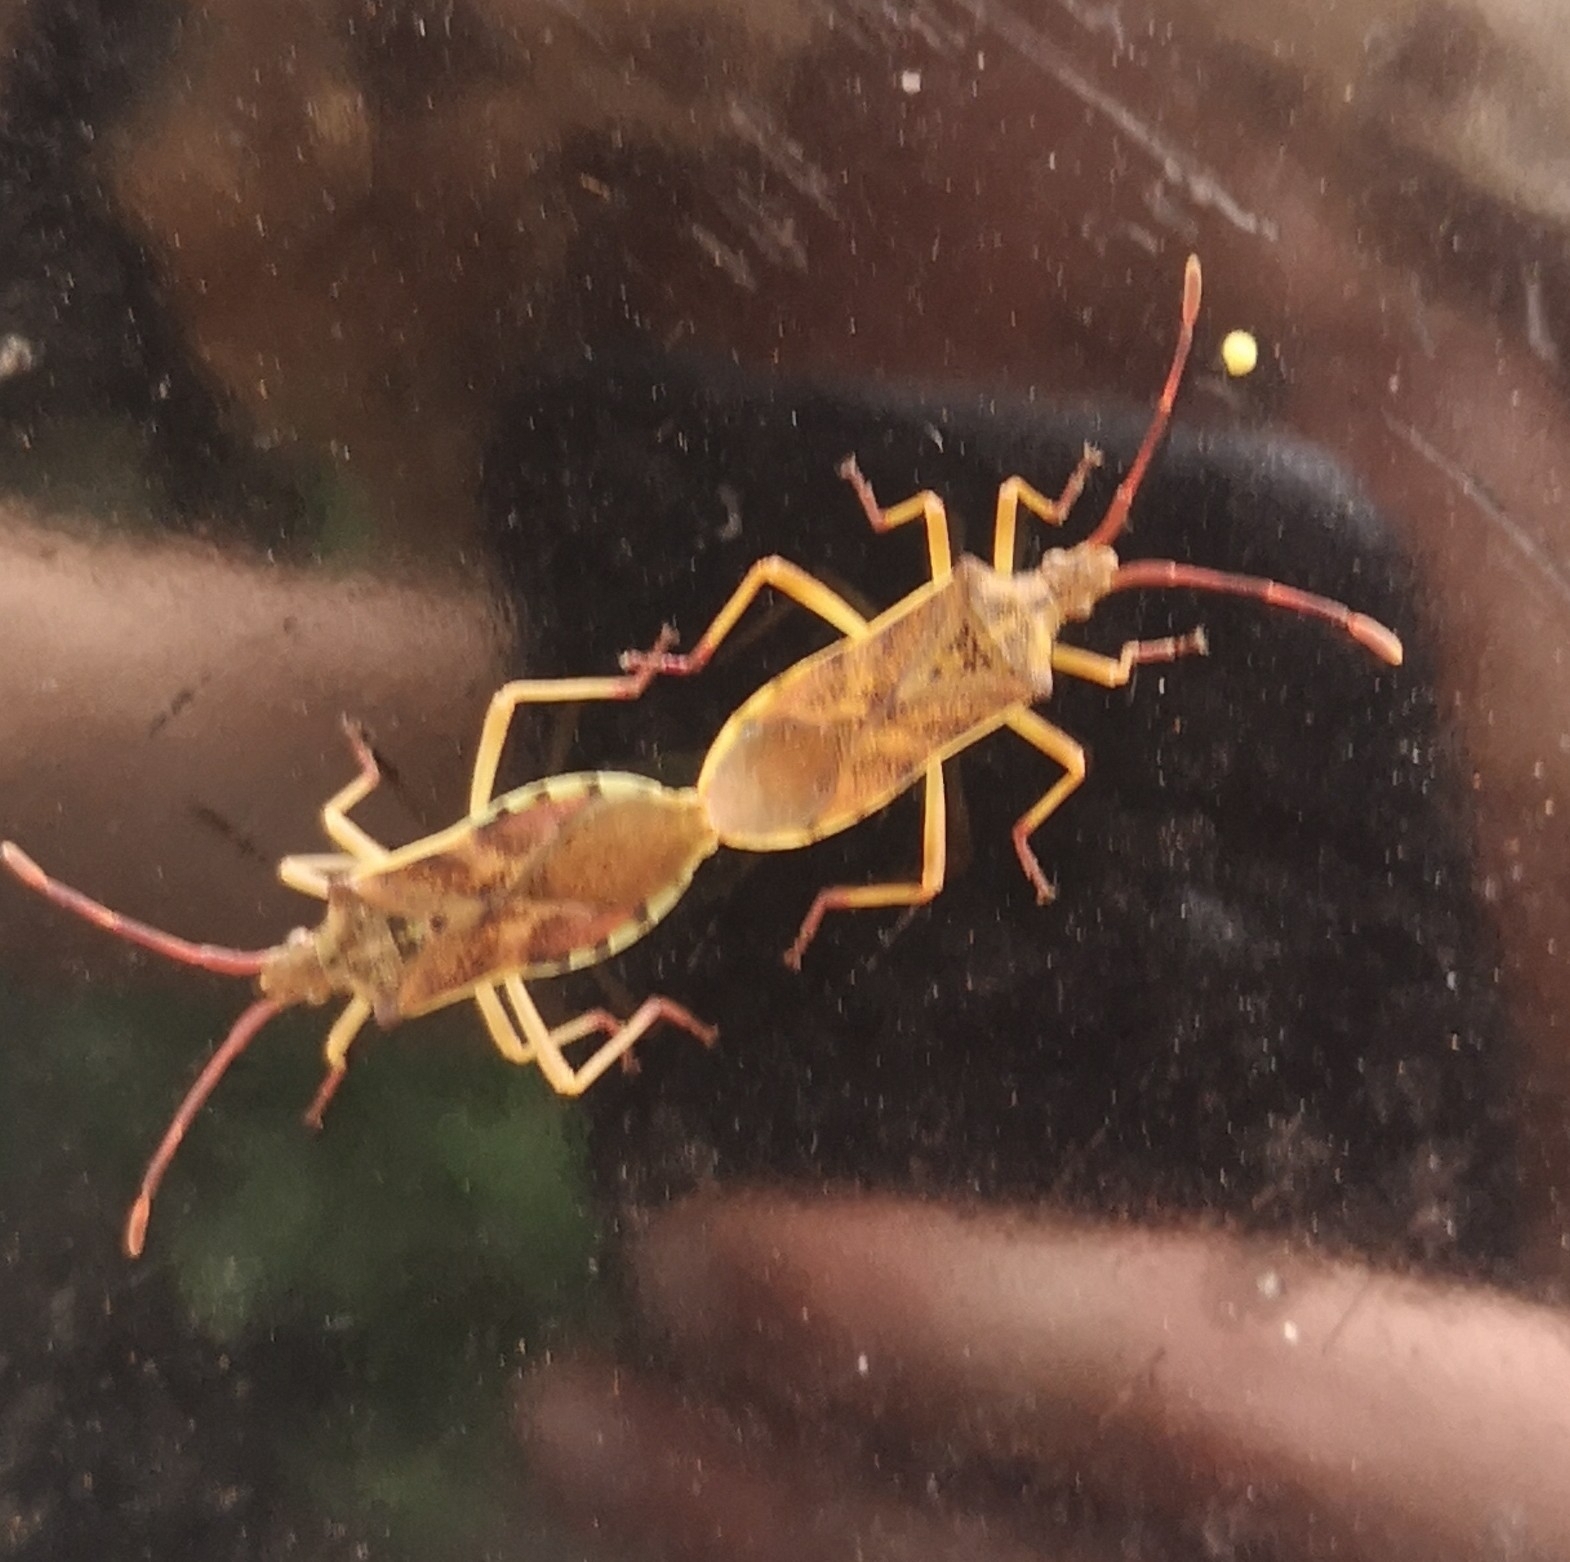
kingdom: Animalia
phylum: Arthropoda
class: Insecta
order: Hemiptera
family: Coreidae
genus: Gonocerus
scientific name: Gonocerus juniperi
